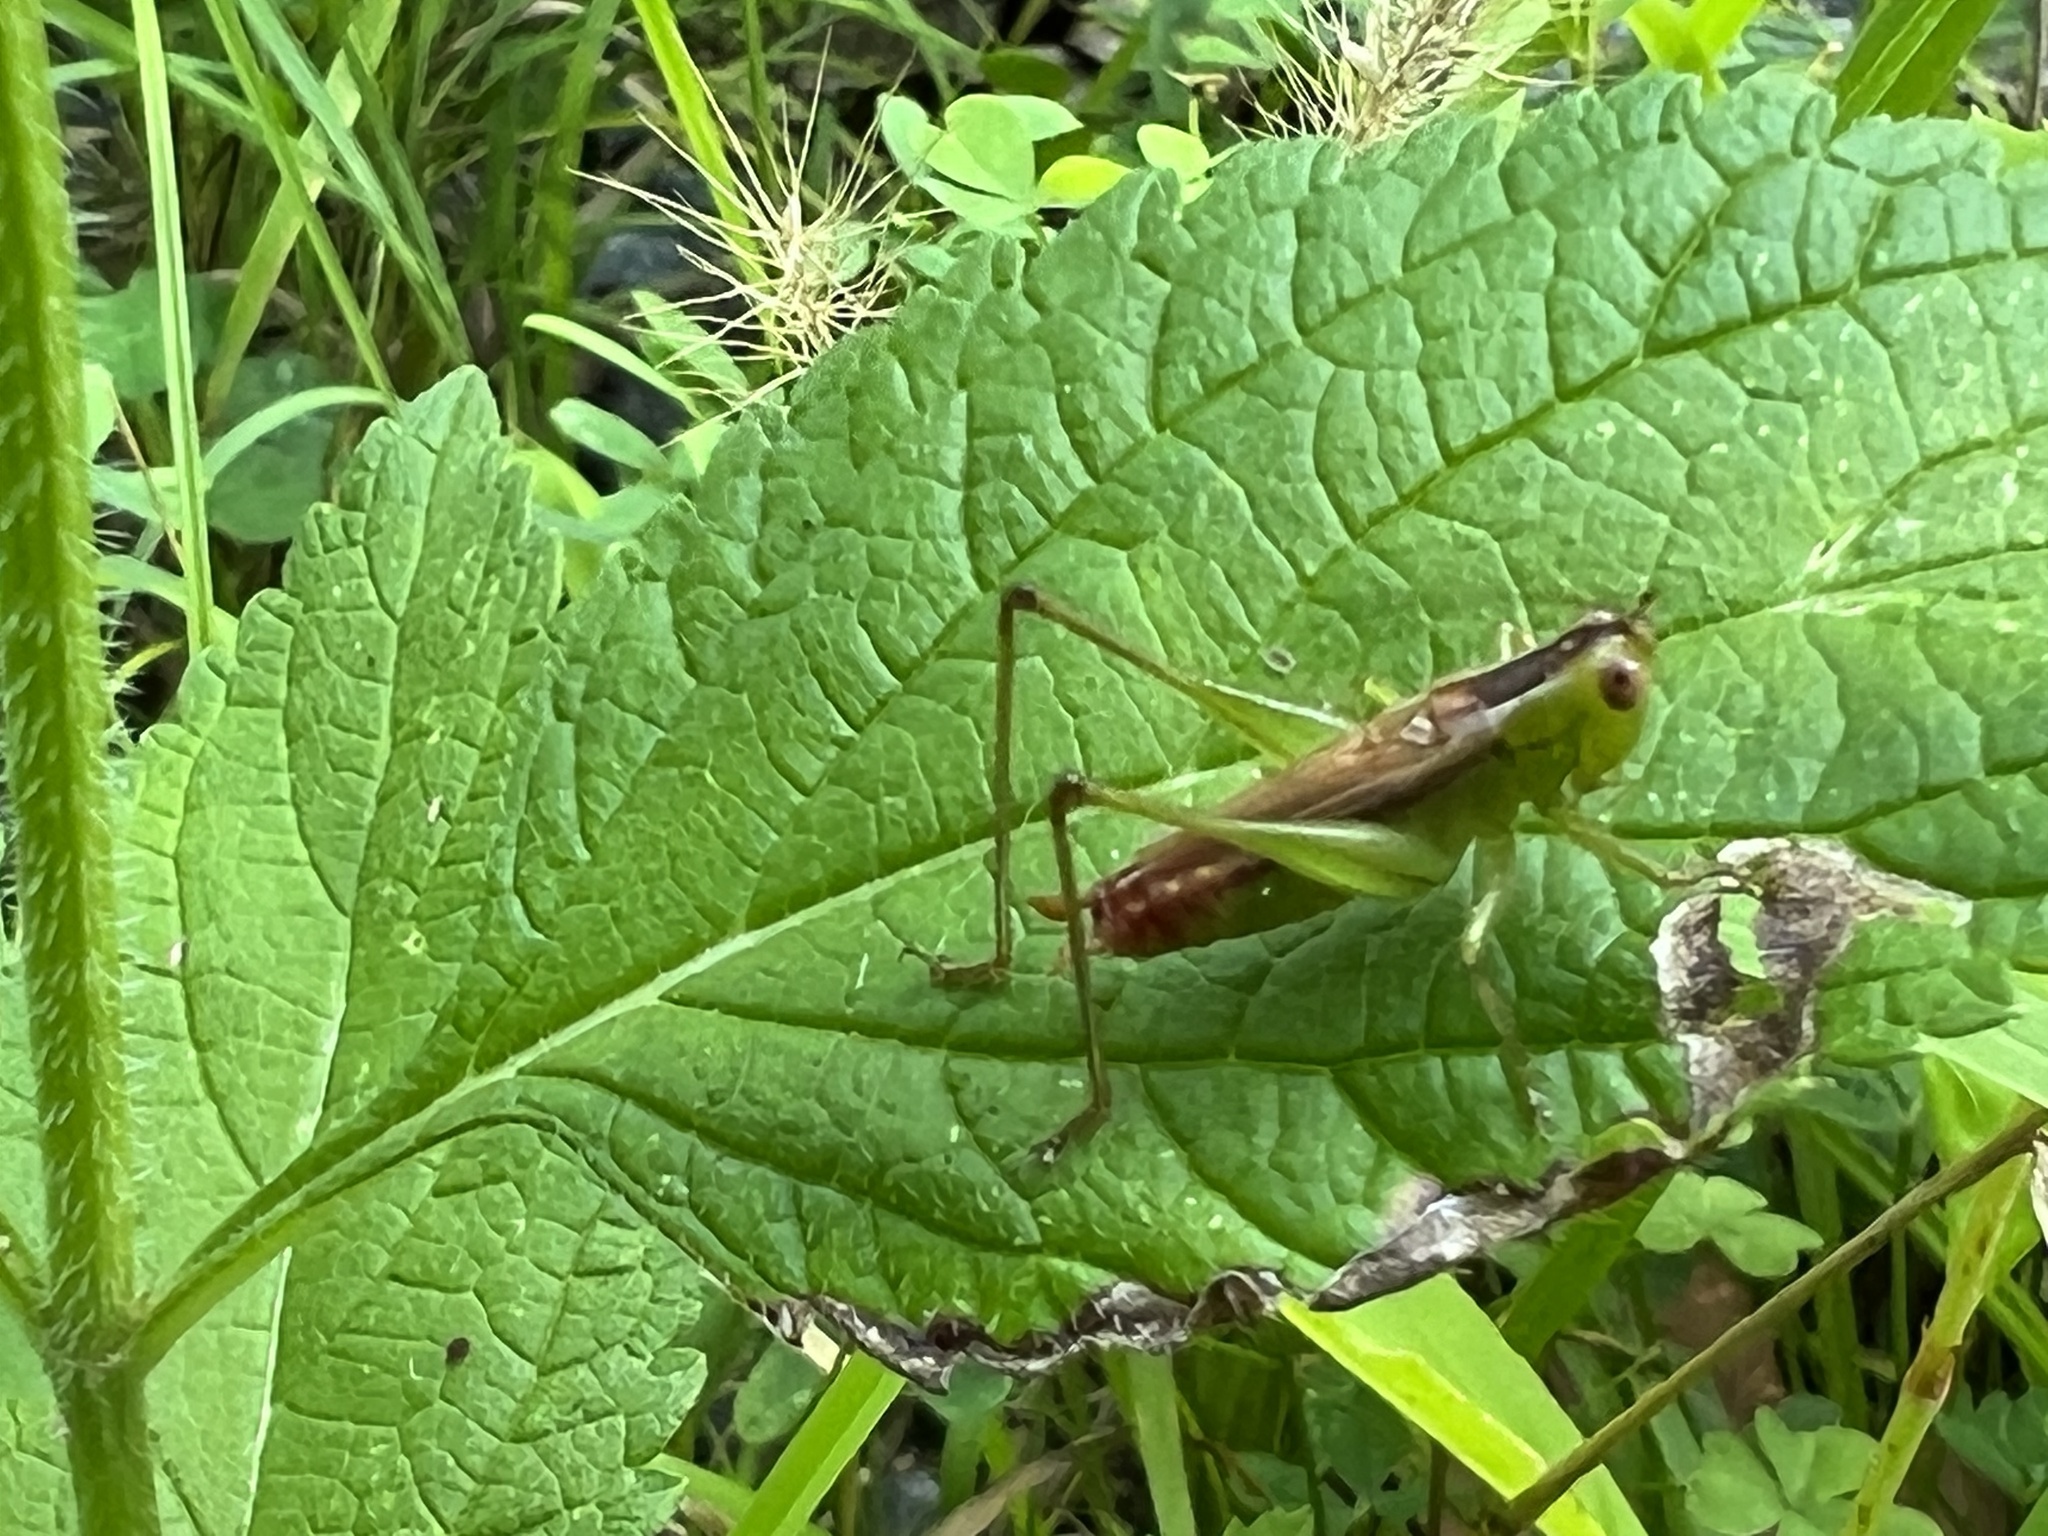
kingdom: Animalia
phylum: Arthropoda
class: Insecta
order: Orthoptera
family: Tettigoniidae
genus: Conocephalus
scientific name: Conocephalus brevipennis
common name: Short-winged meadow katydid
